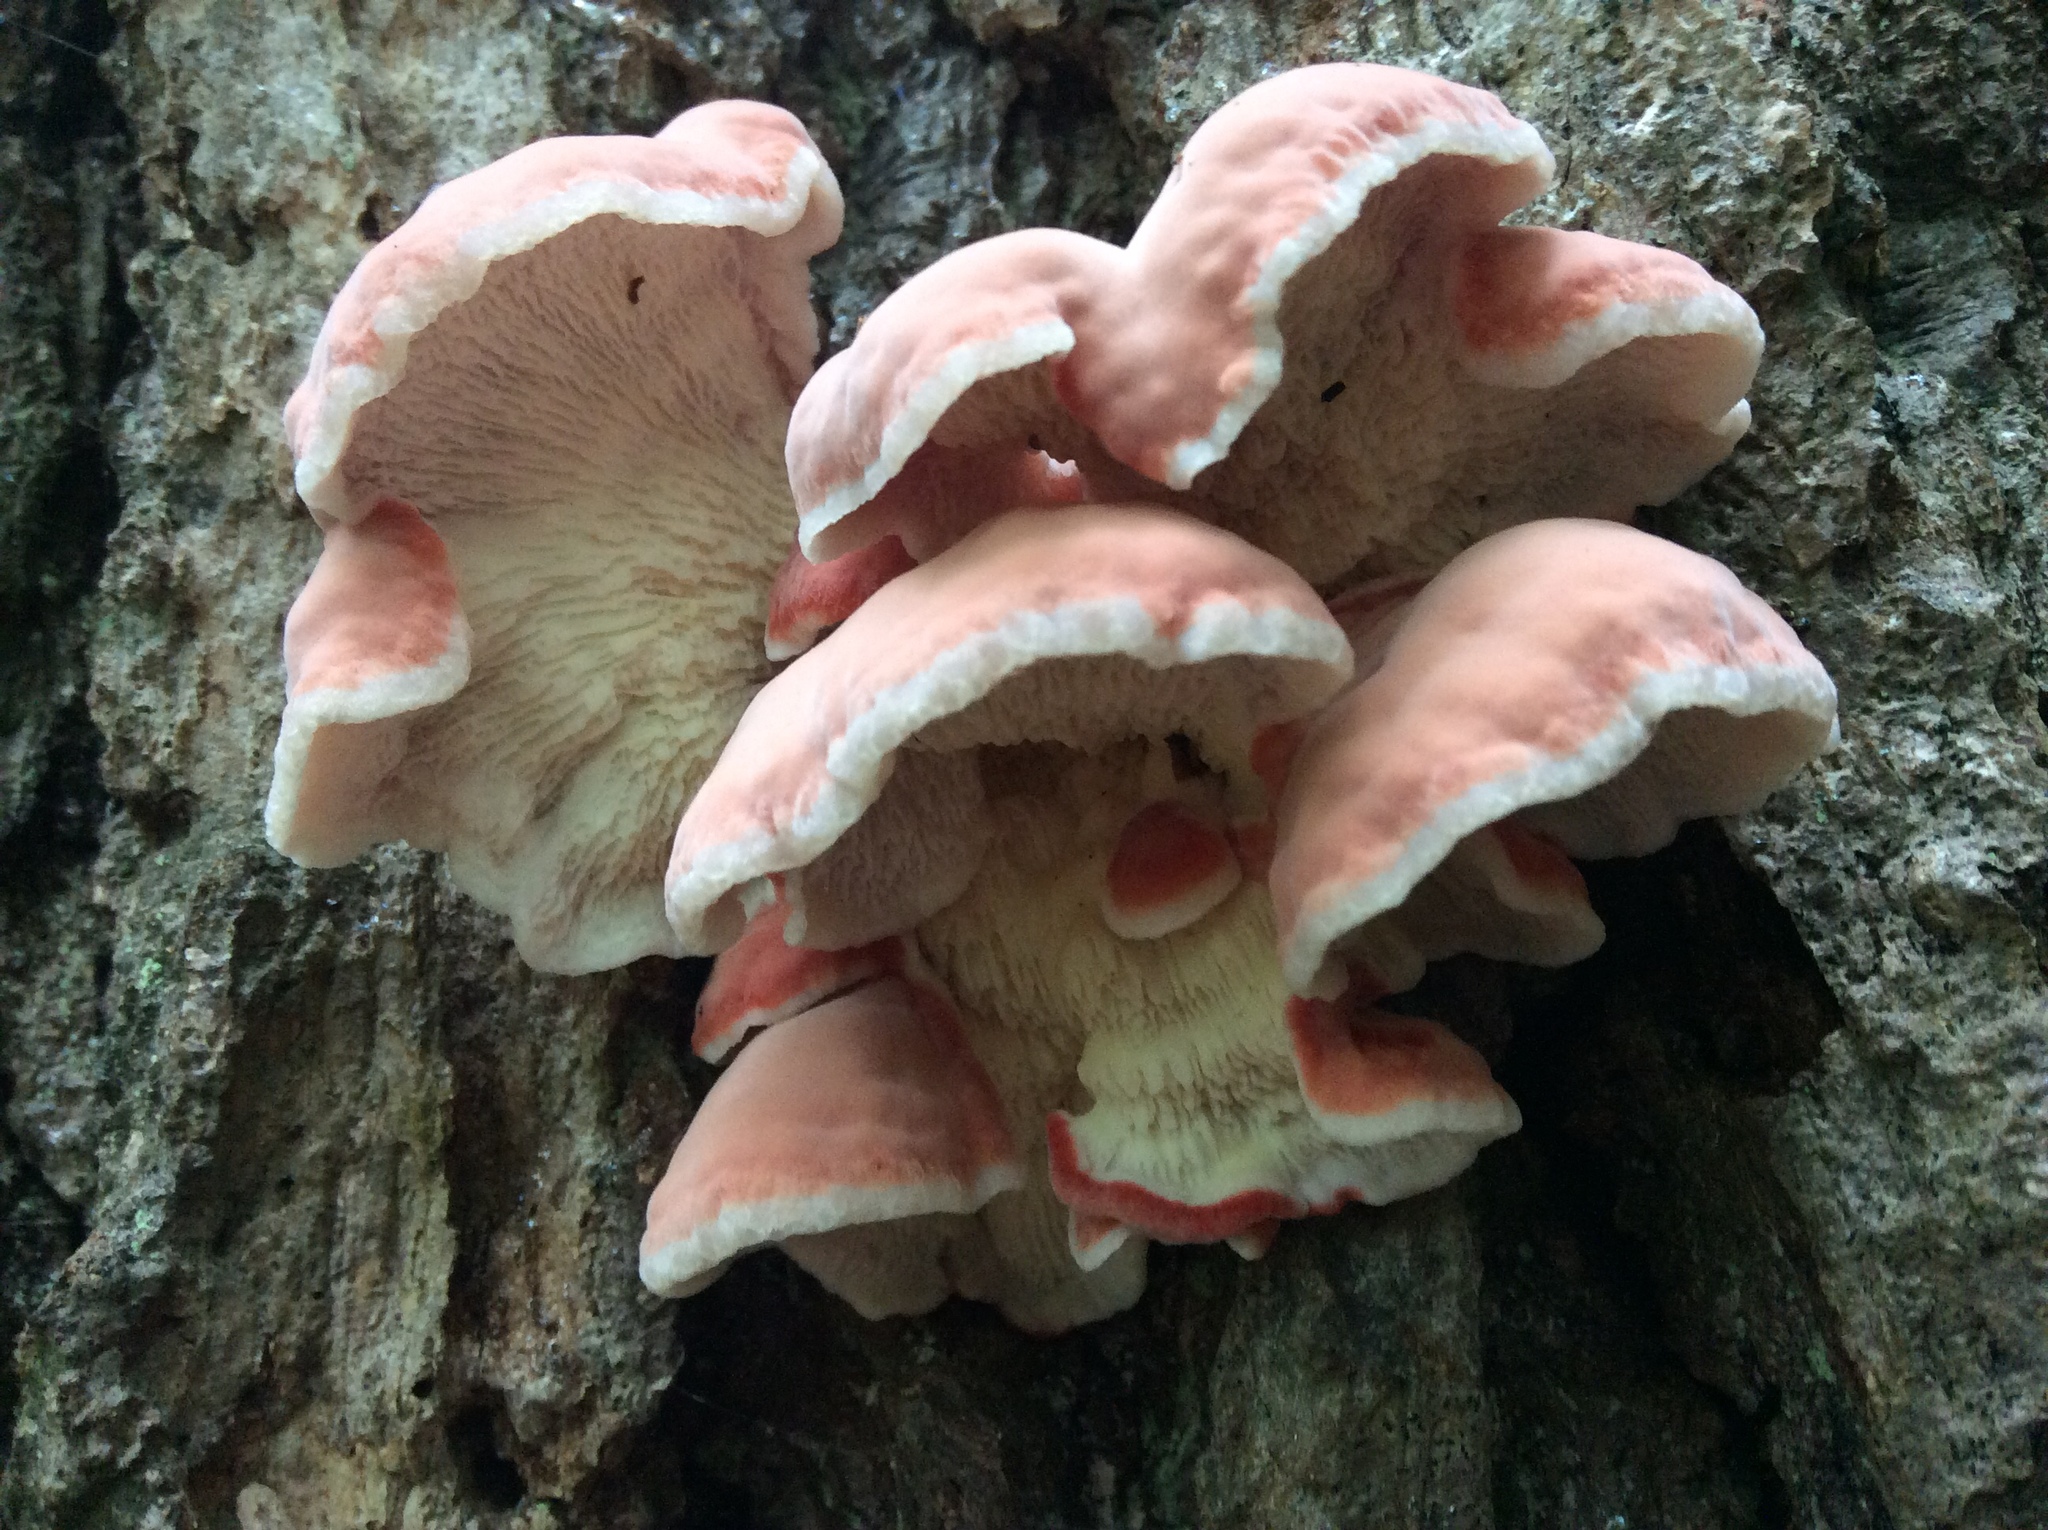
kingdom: Fungi
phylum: Basidiomycota
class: Agaricomycetes
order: Polyporales
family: Irpicaceae
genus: Byssomerulius
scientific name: Byssomerulius incarnatus
